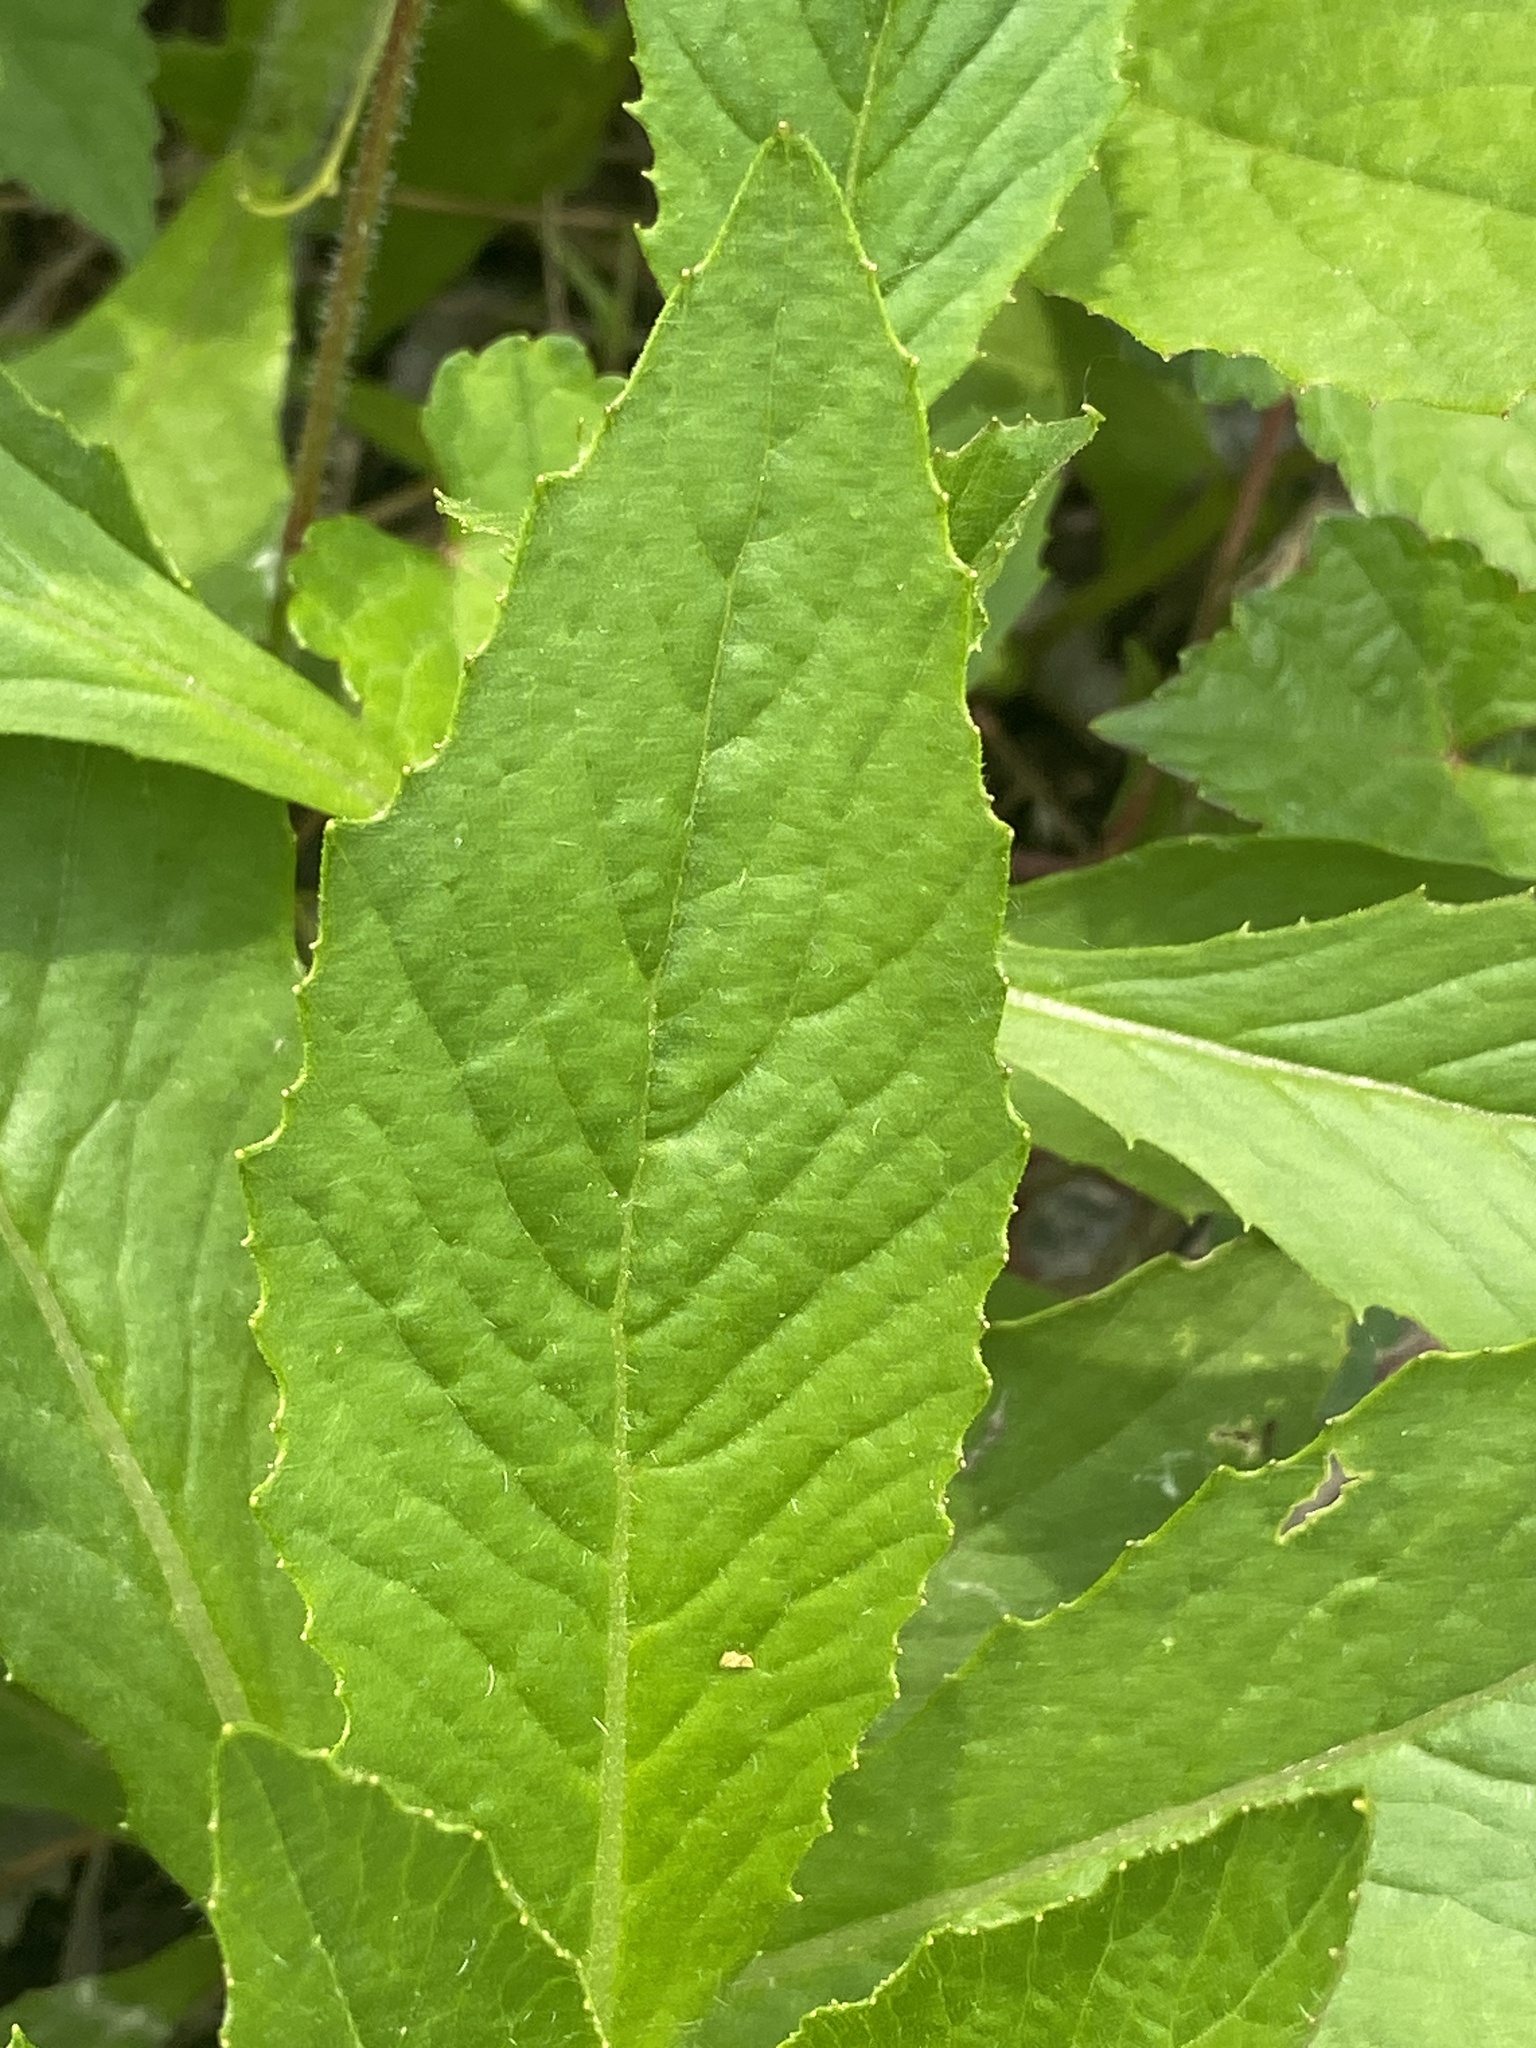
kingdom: Plantae
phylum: Tracheophyta
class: Magnoliopsida
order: Asterales
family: Asteraceae
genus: Erechtites
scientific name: Erechtites hieraciifolius
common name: American burnweed
